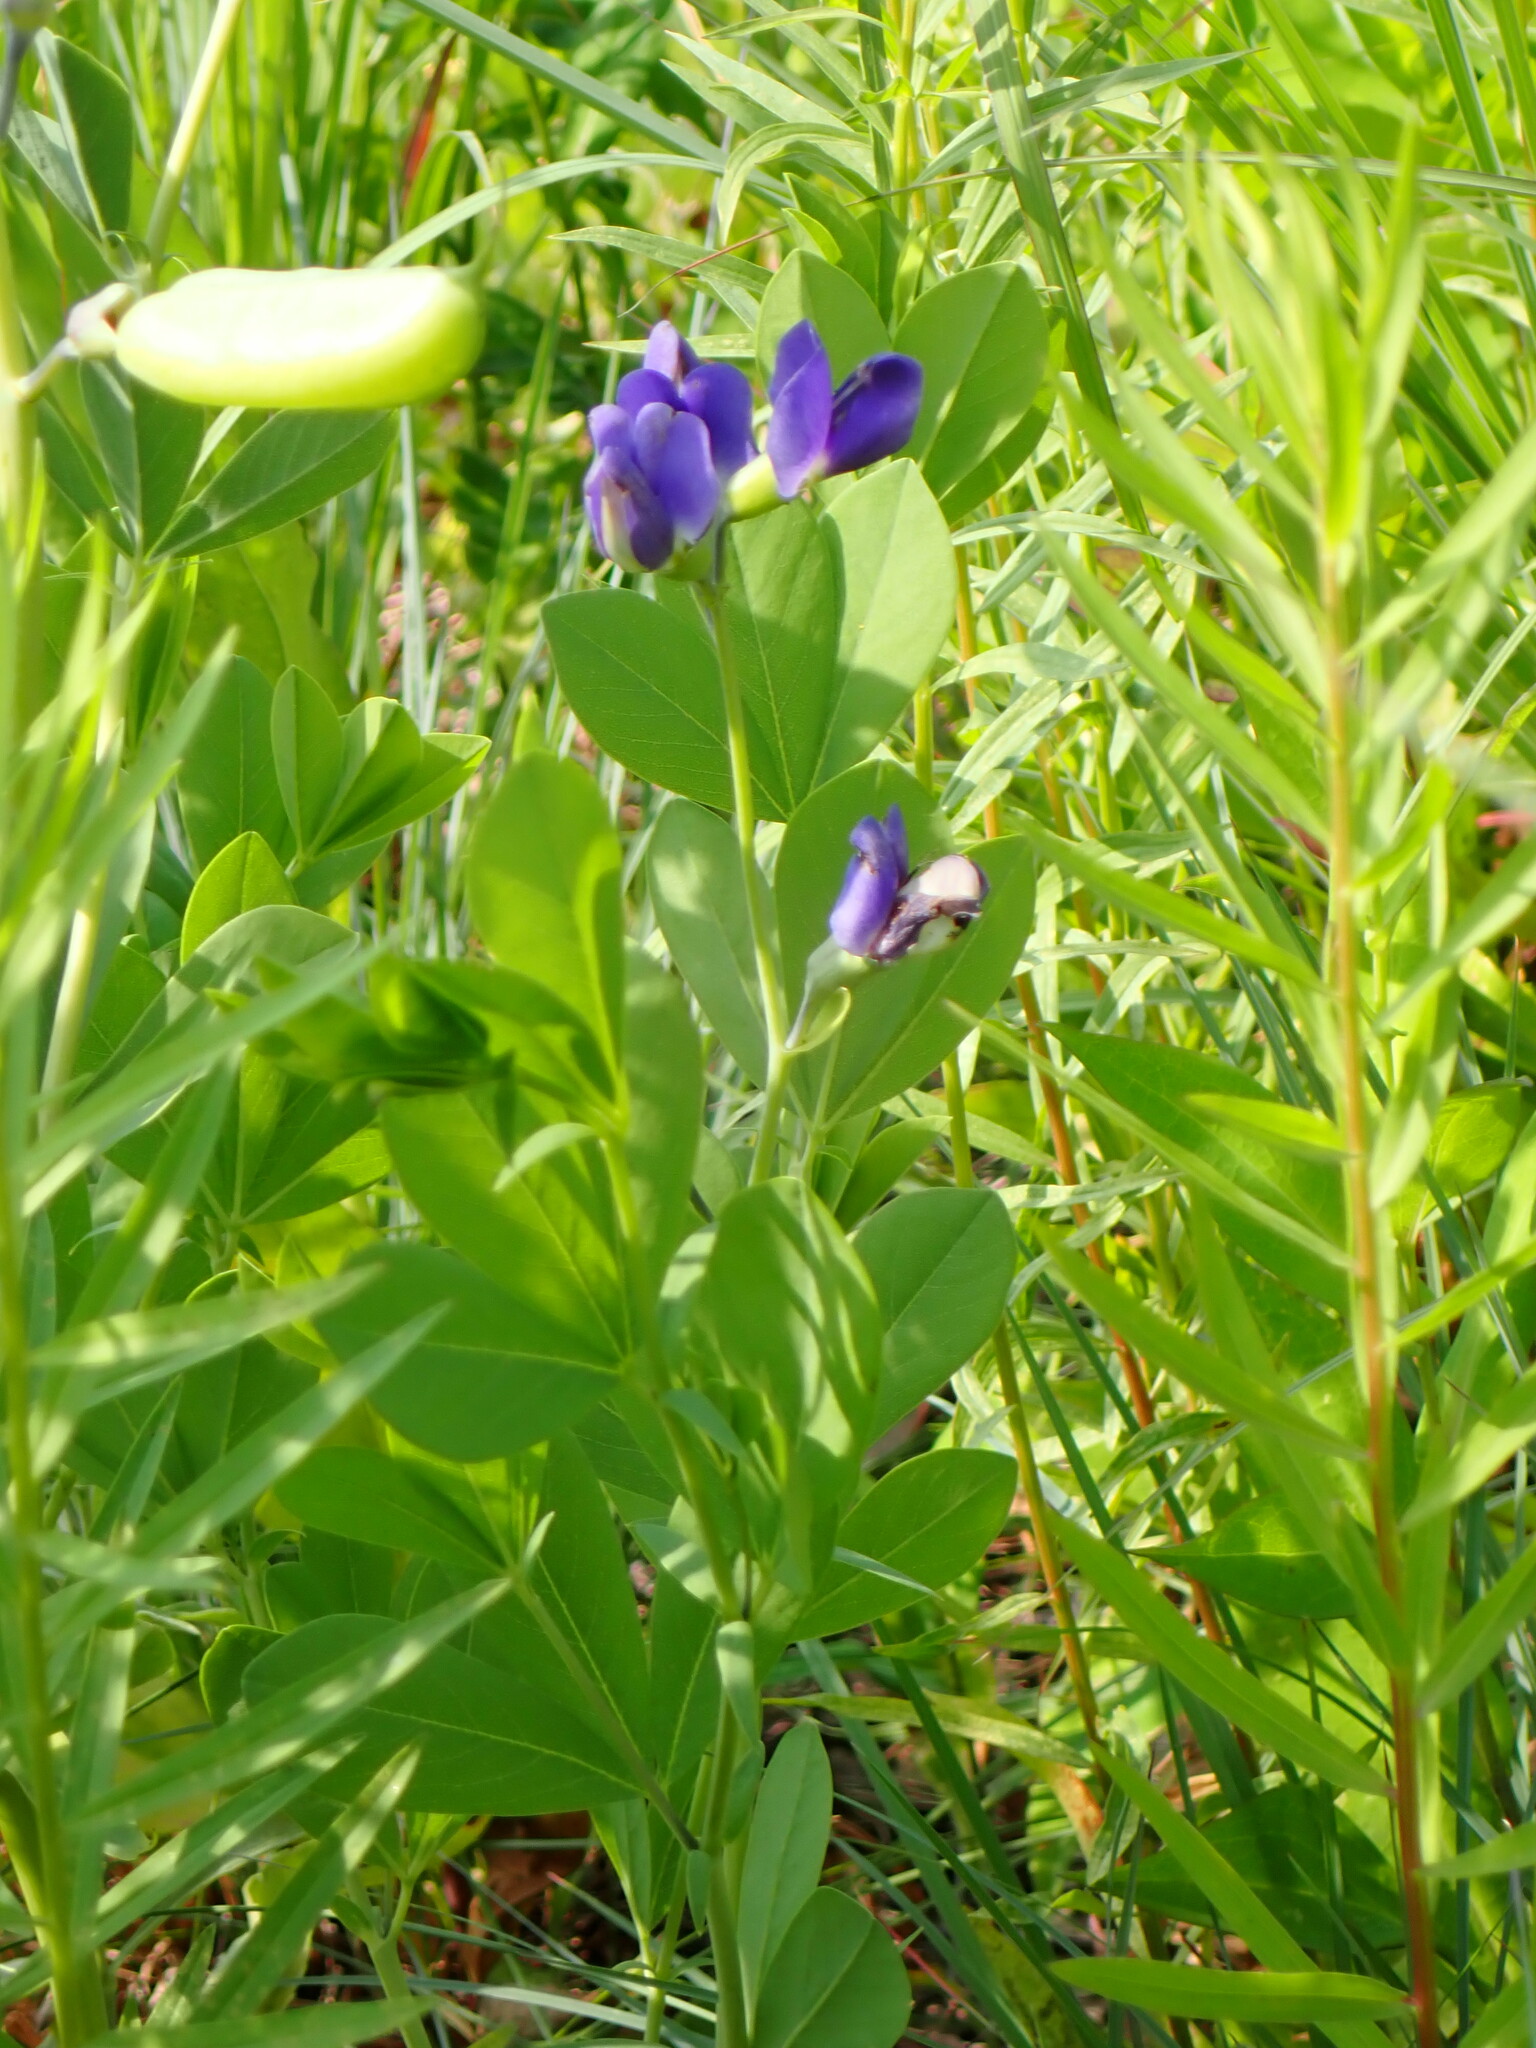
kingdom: Plantae
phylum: Tracheophyta
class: Magnoliopsida
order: Fabales
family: Fabaceae
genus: Baptisia
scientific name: Baptisia australis
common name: Blue false indigo
